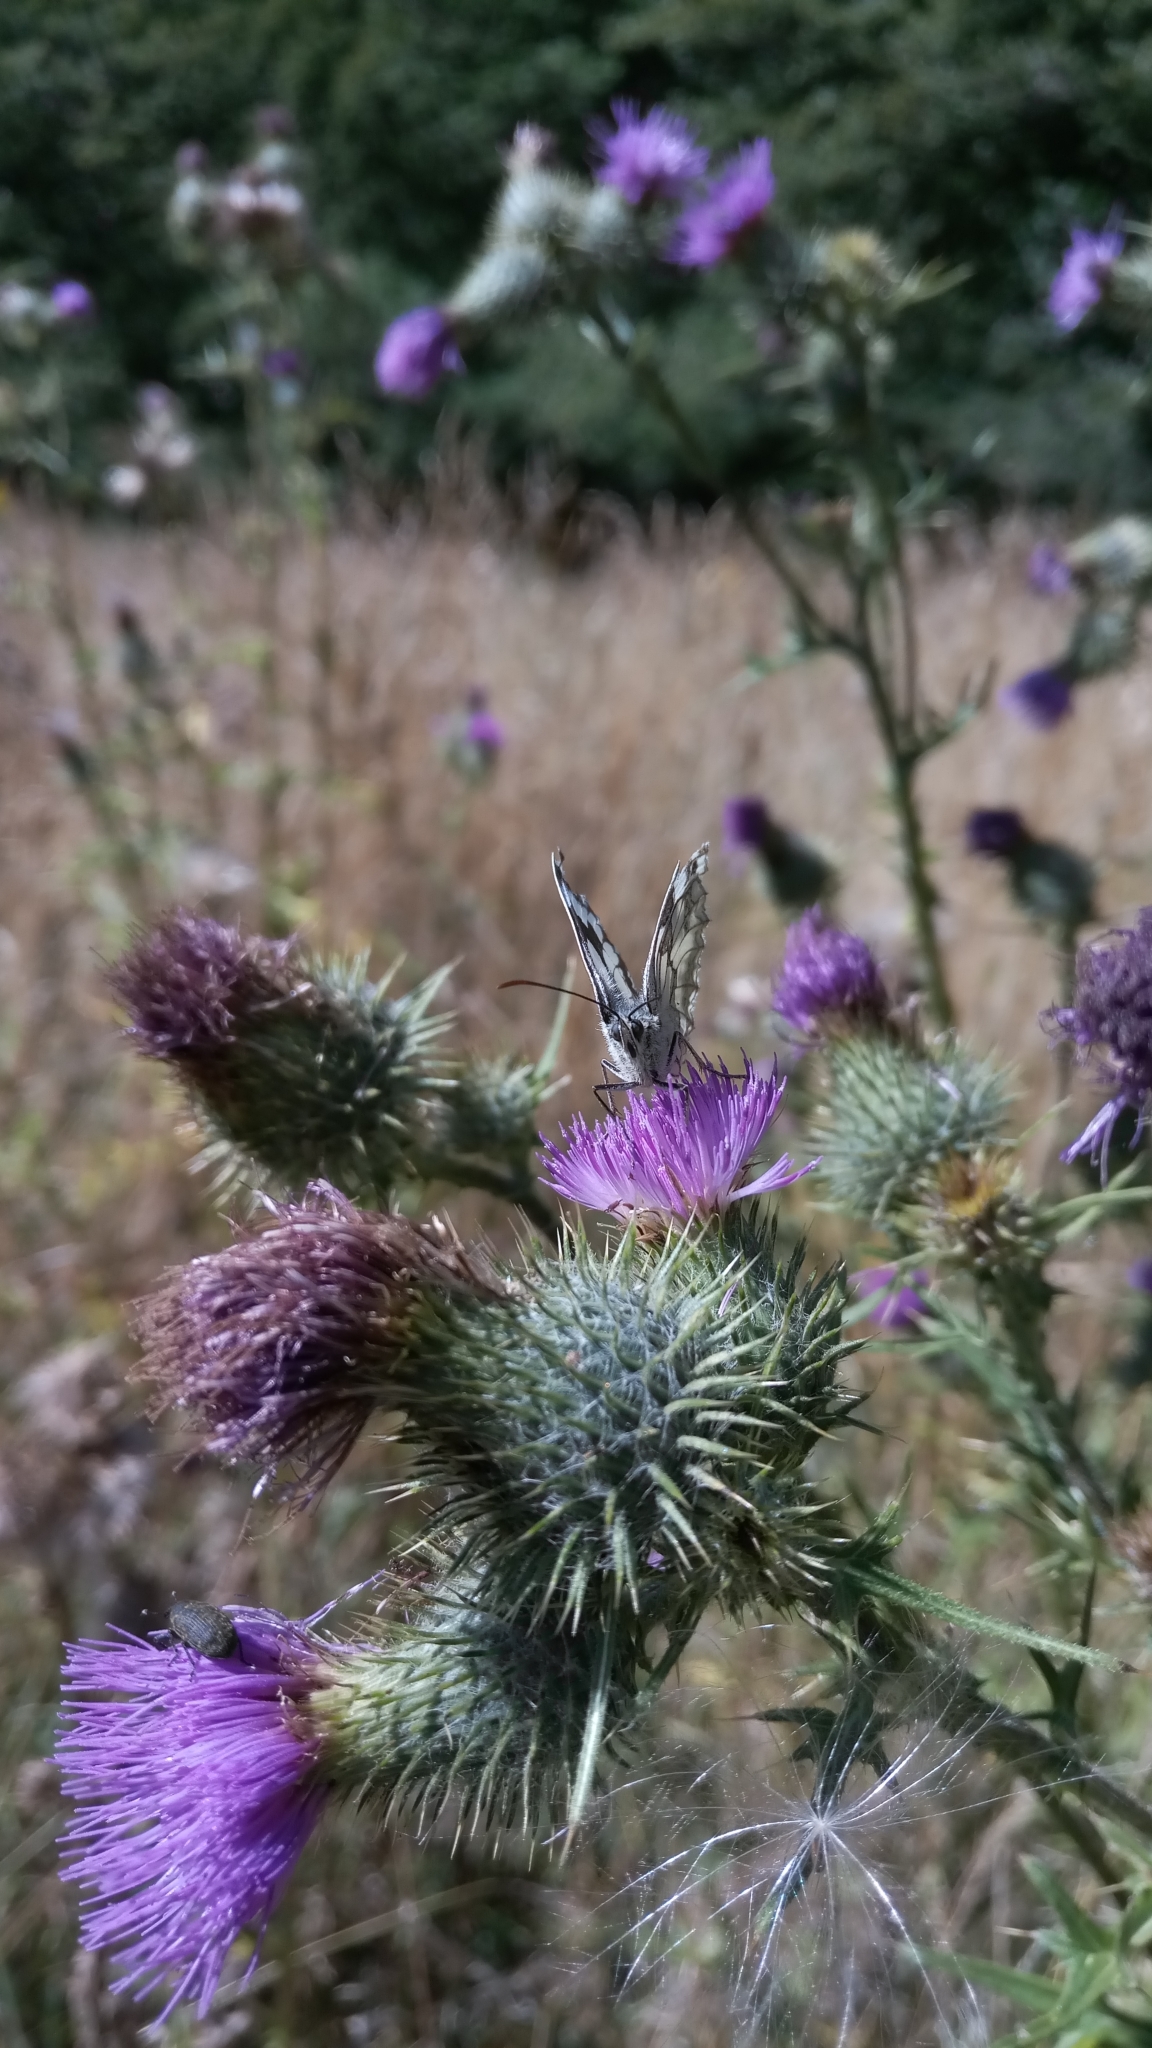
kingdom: Animalia
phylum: Arthropoda
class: Insecta
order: Lepidoptera
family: Nymphalidae
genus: Melanargia
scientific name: Melanargia galathea
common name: Marbled white
